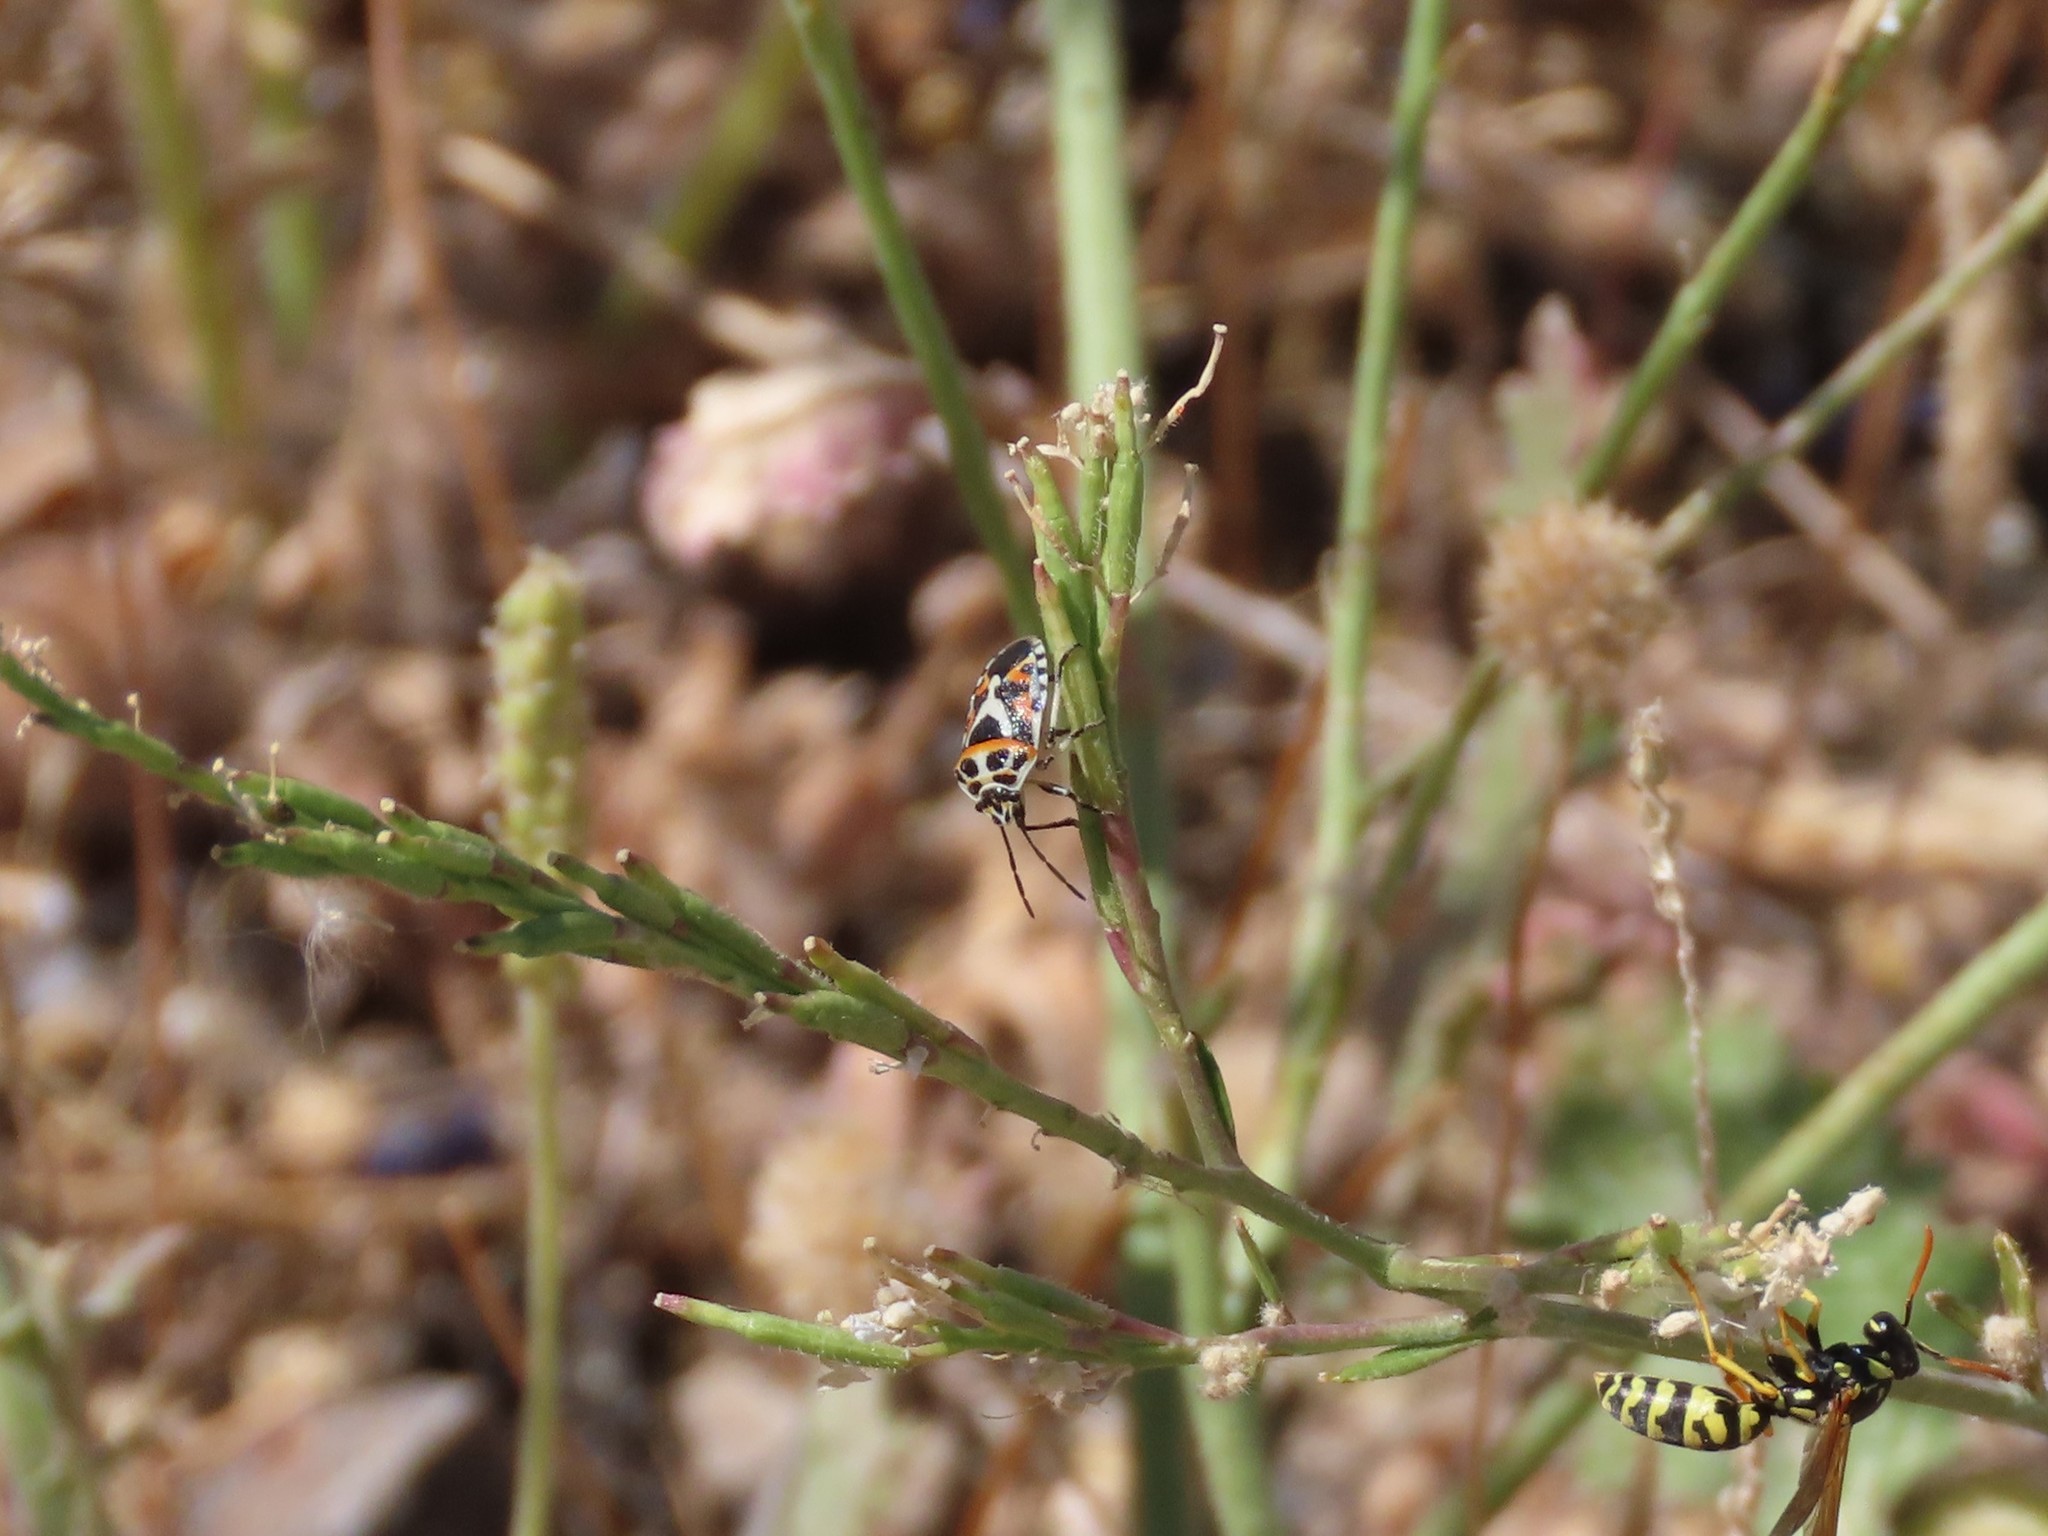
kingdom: Animalia
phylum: Arthropoda
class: Insecta
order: Hemiptera
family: Pentatomidae
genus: Eurydema
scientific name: Eurydema ornata
